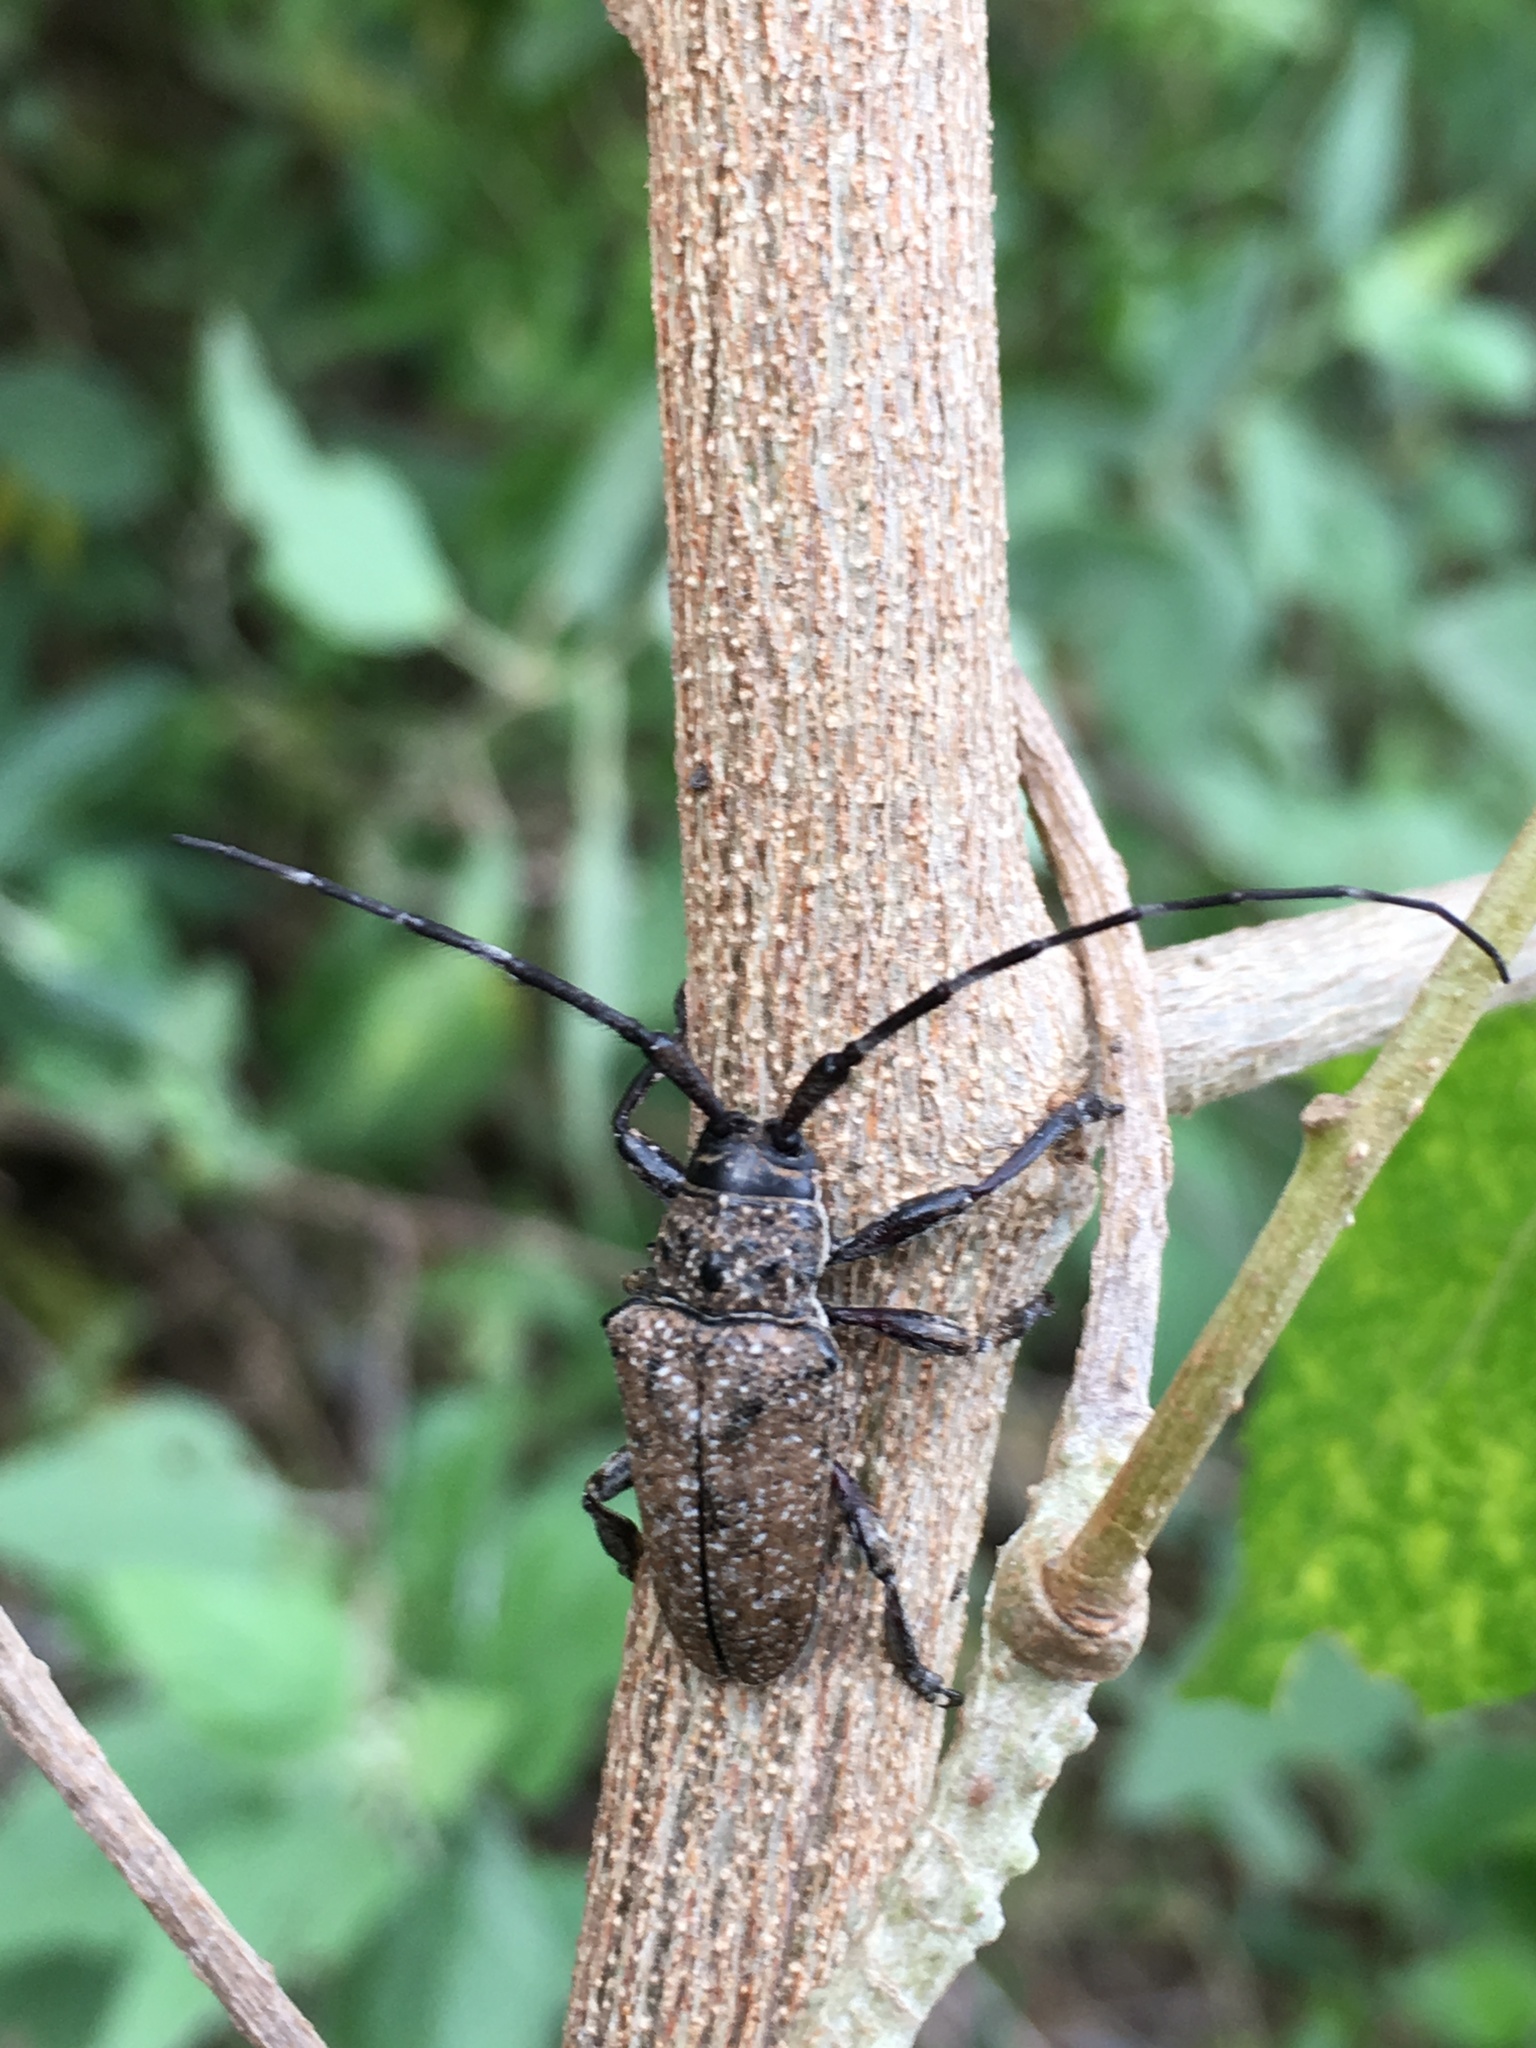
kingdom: Animalia
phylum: Arthropoda
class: Insecta
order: Coleoptera
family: Cerambycidae
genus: Neodillonia
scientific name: Neodillonia albisparsa
